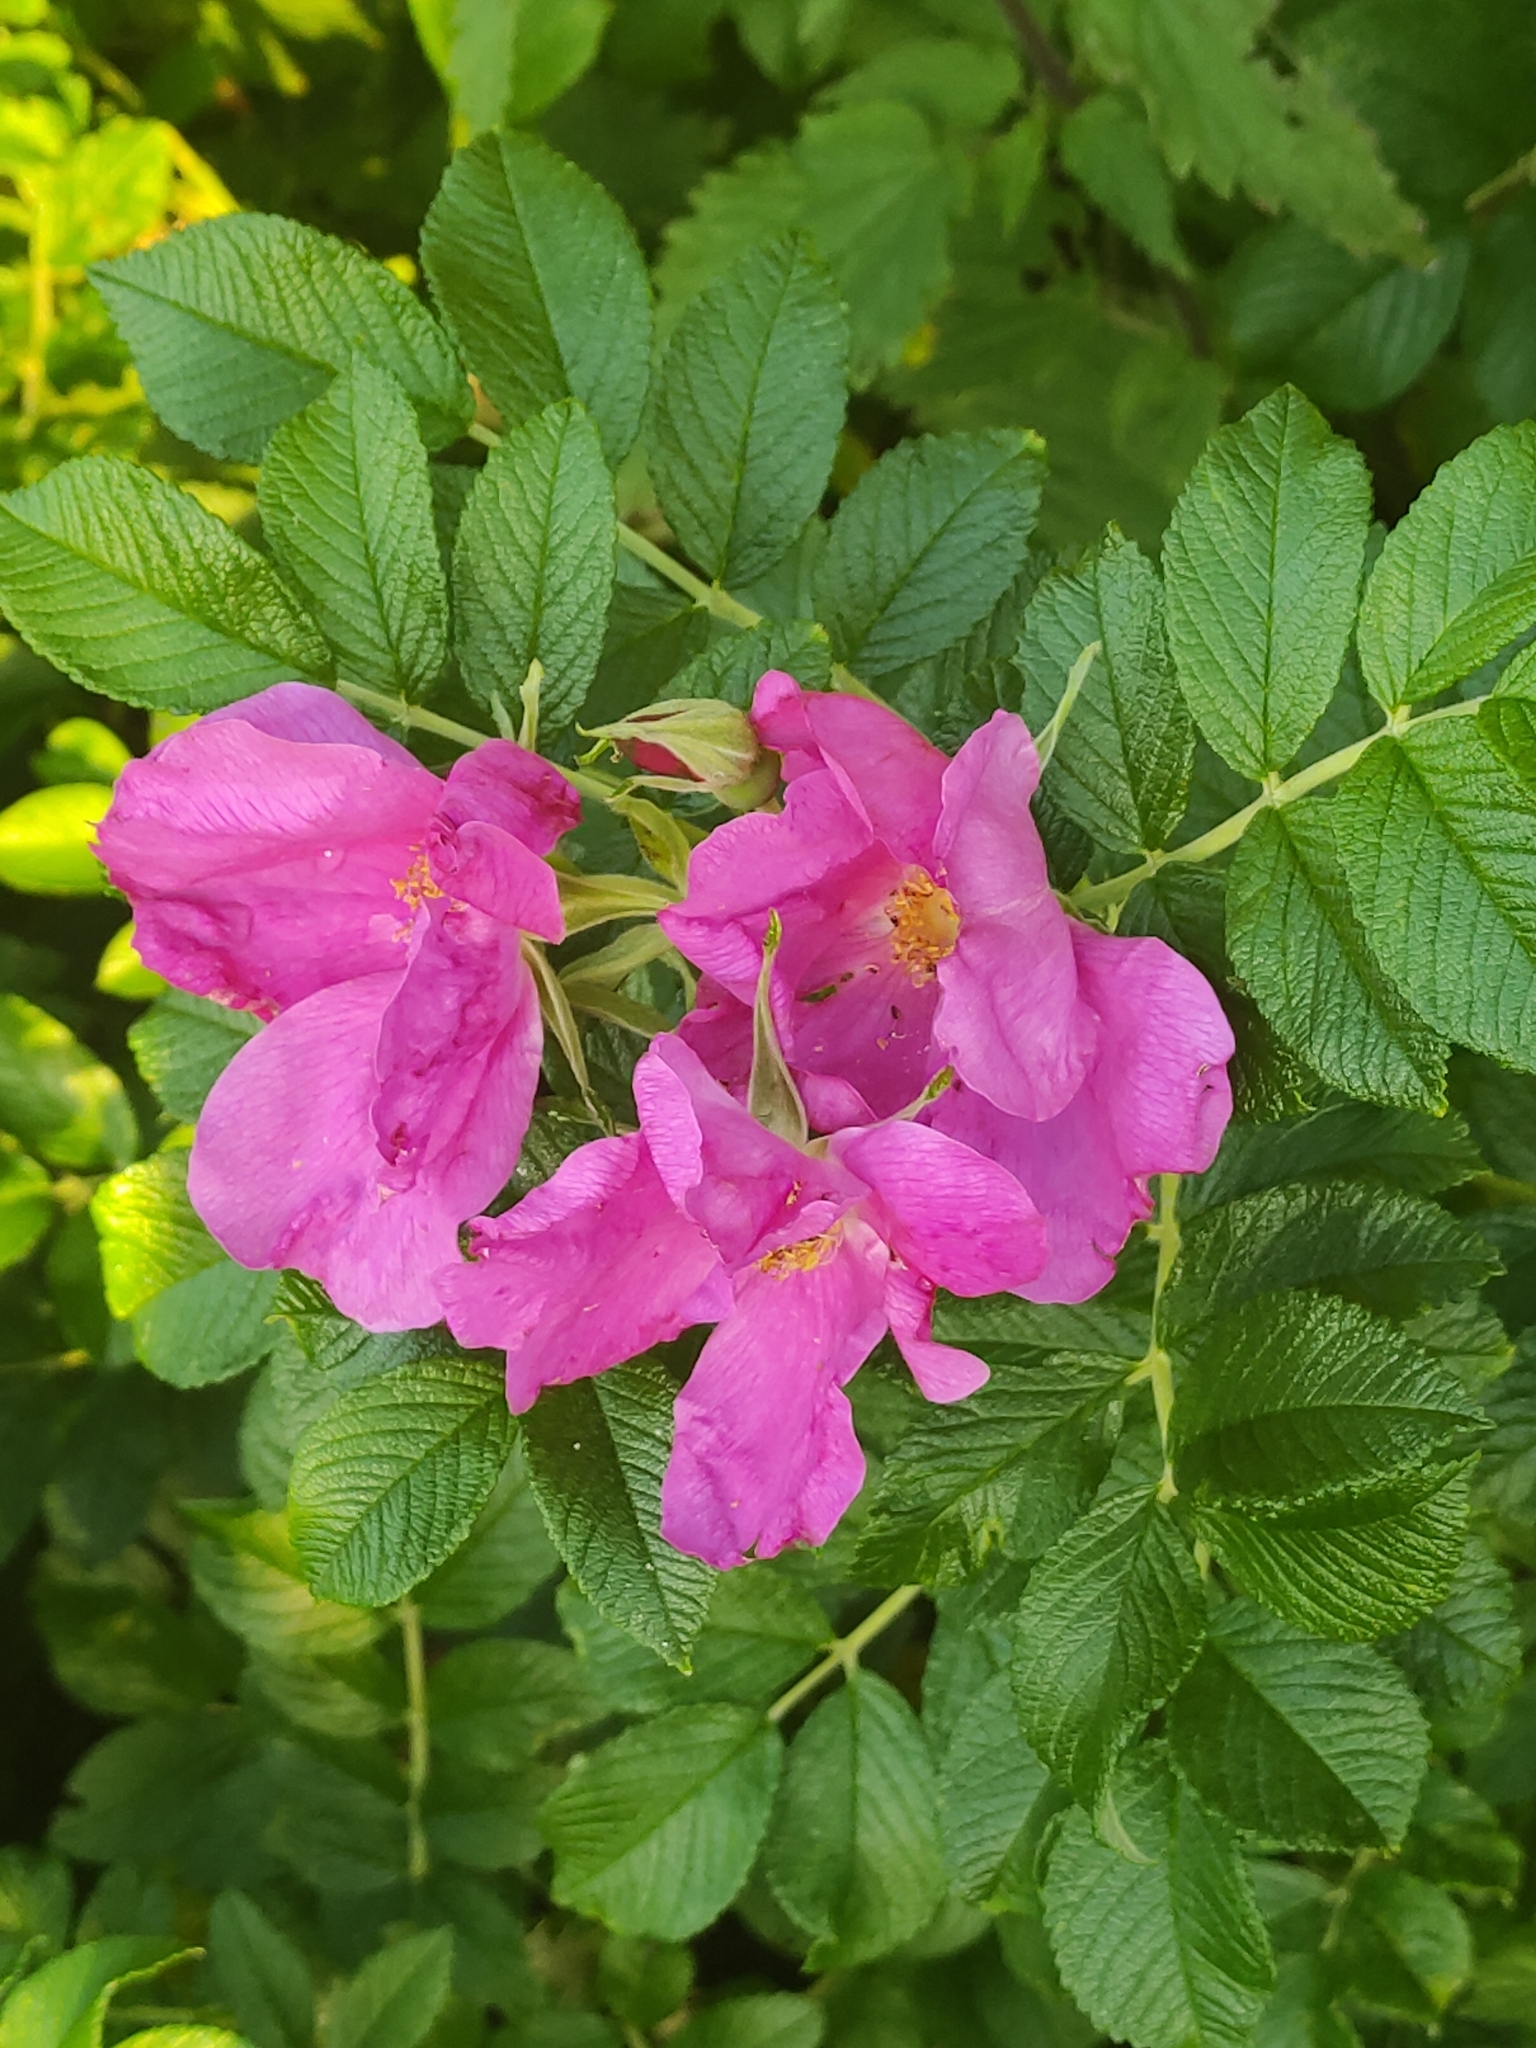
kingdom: Plantae
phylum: Tracheophyta
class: Magnoliopsida
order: Rosales
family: Rosaceae
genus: Rosa
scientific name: Rosa rugosa
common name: Japanese rose
